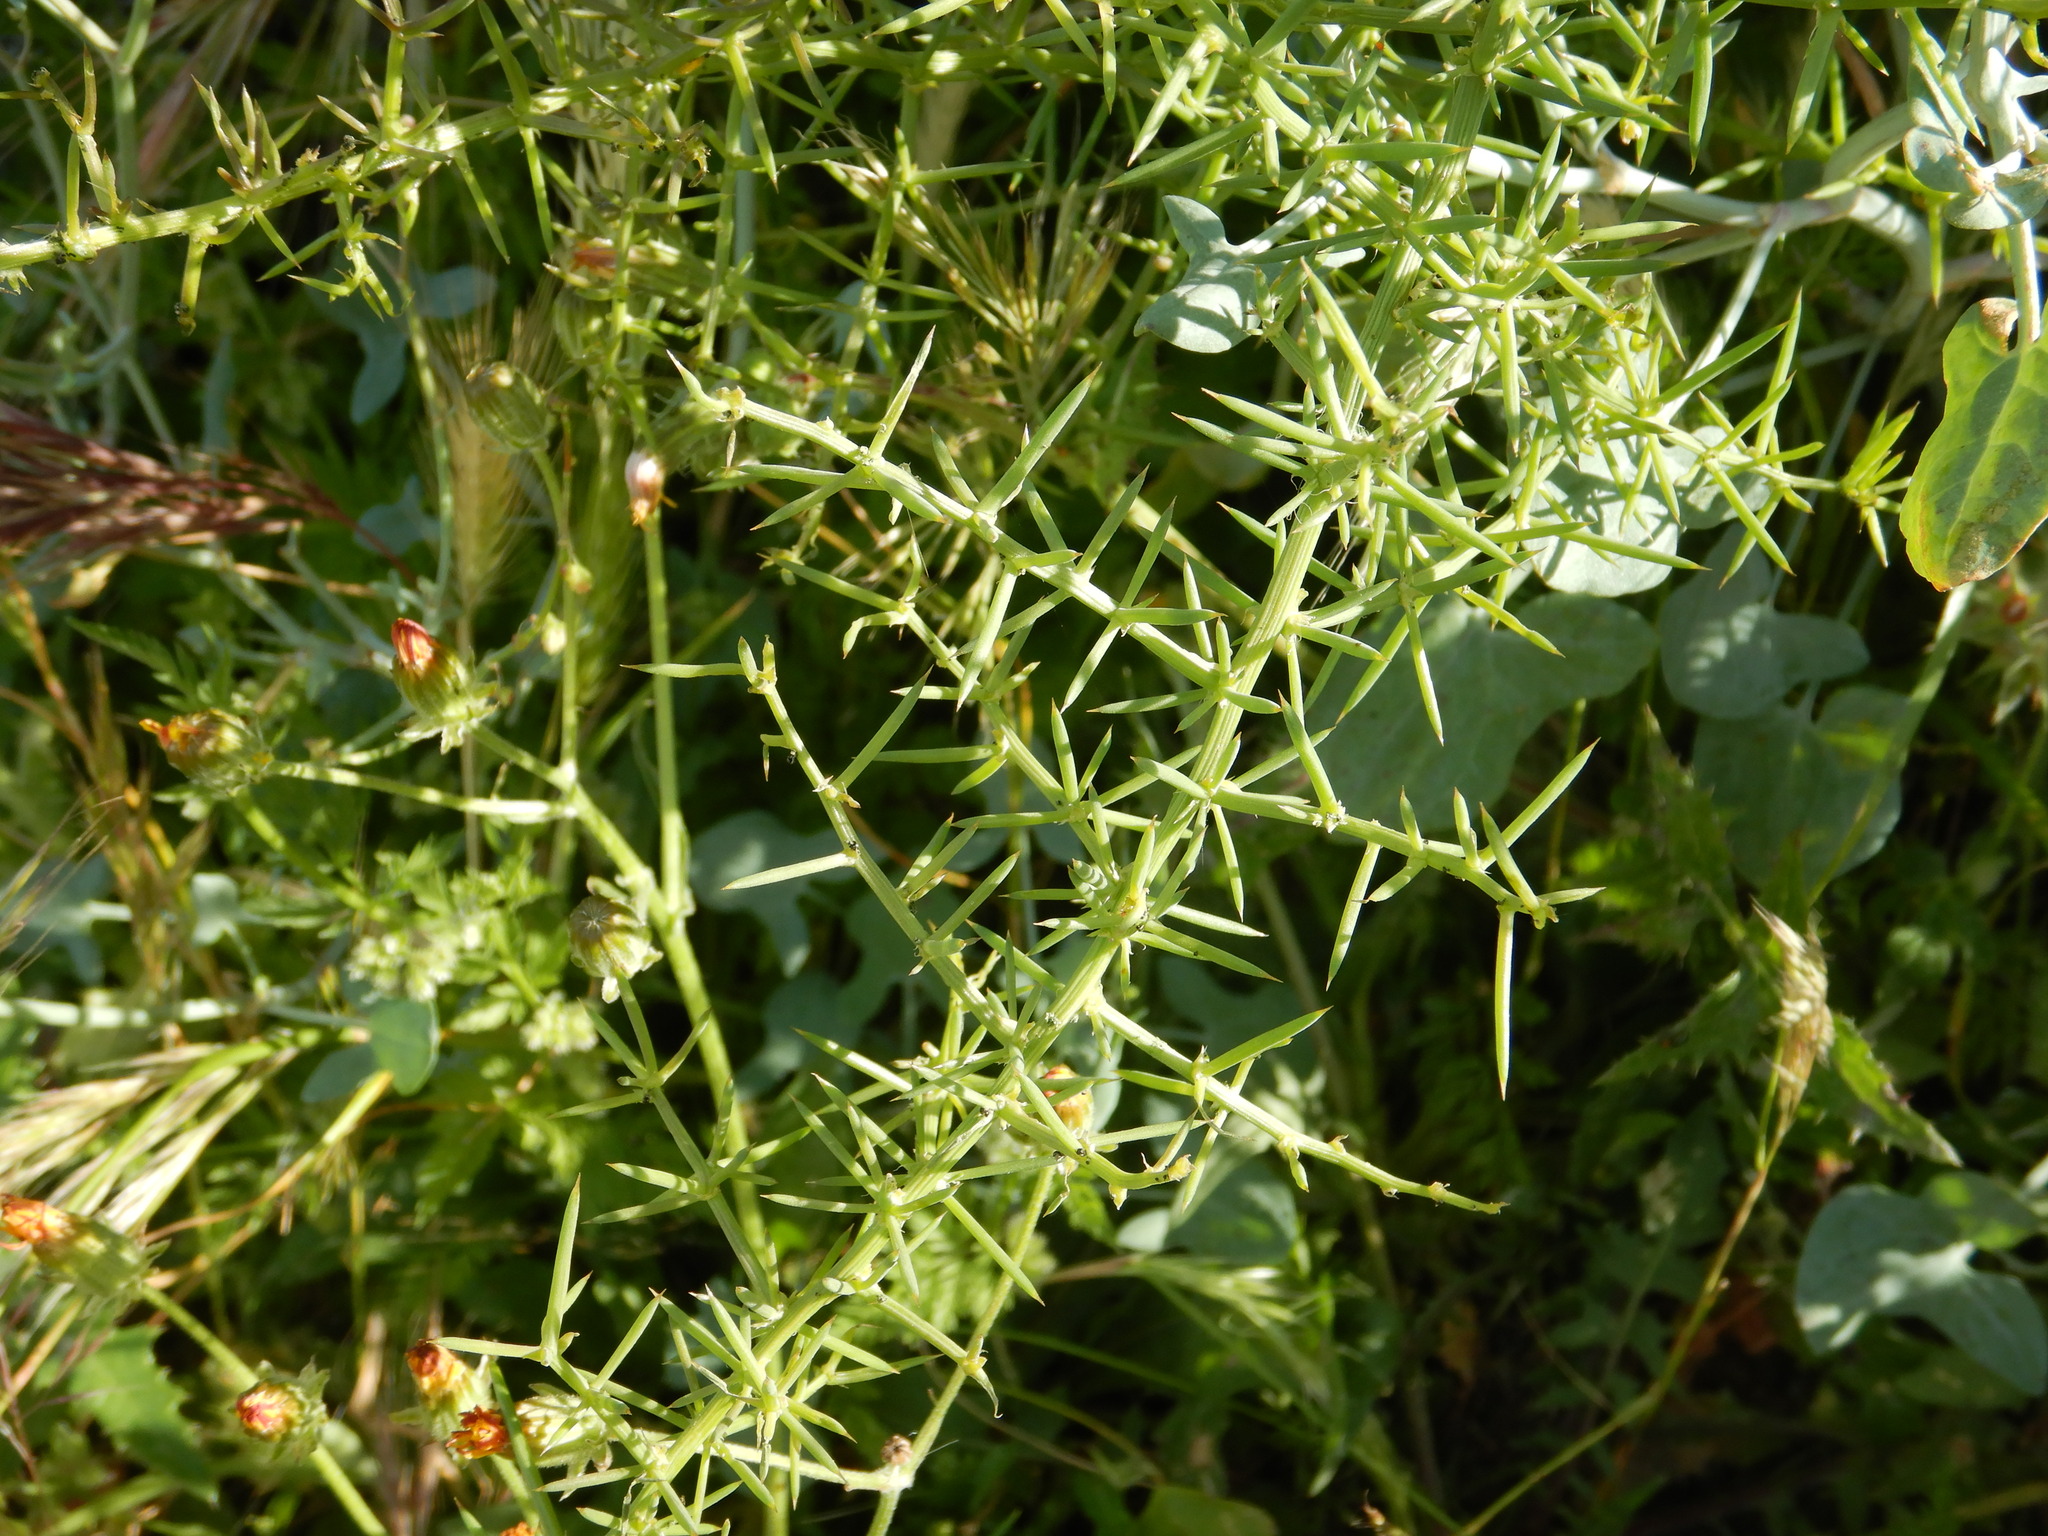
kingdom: Plantae
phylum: Tracheophyta
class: Liliopsida
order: Asparagales
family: Asparagaceae
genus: Asparagus
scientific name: Asparagus aphyllus
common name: Mediterranean asparagus
